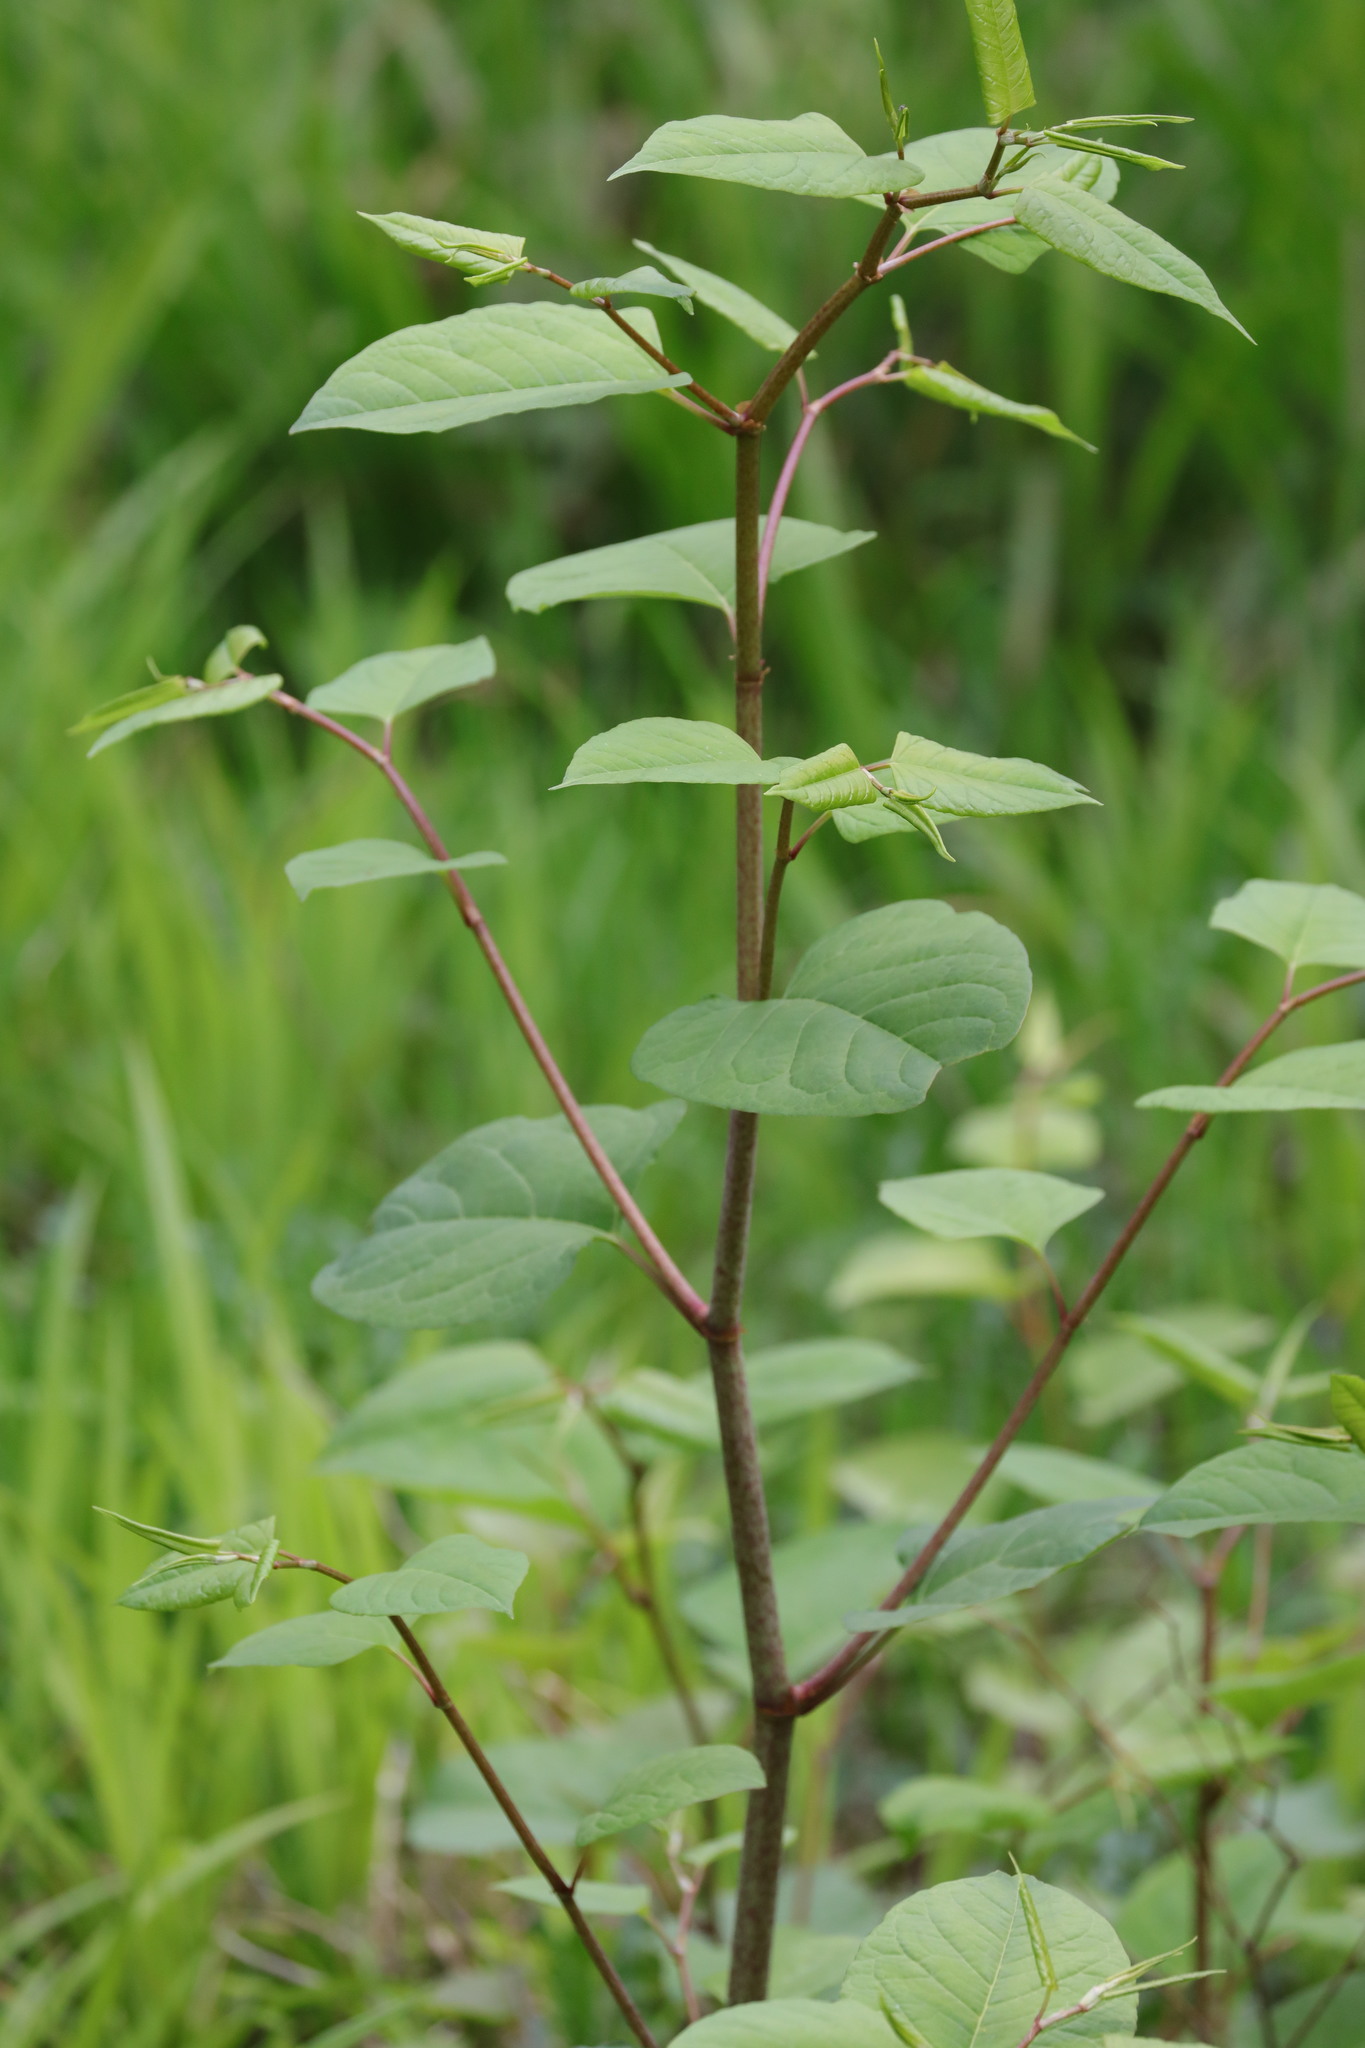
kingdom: Plantae
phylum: Tracheophyta
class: Magnoliopsida
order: Caryophyllales
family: Polygonaceae
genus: Reynoutria
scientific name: Reynoutria japonica
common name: Japanese knotweed
